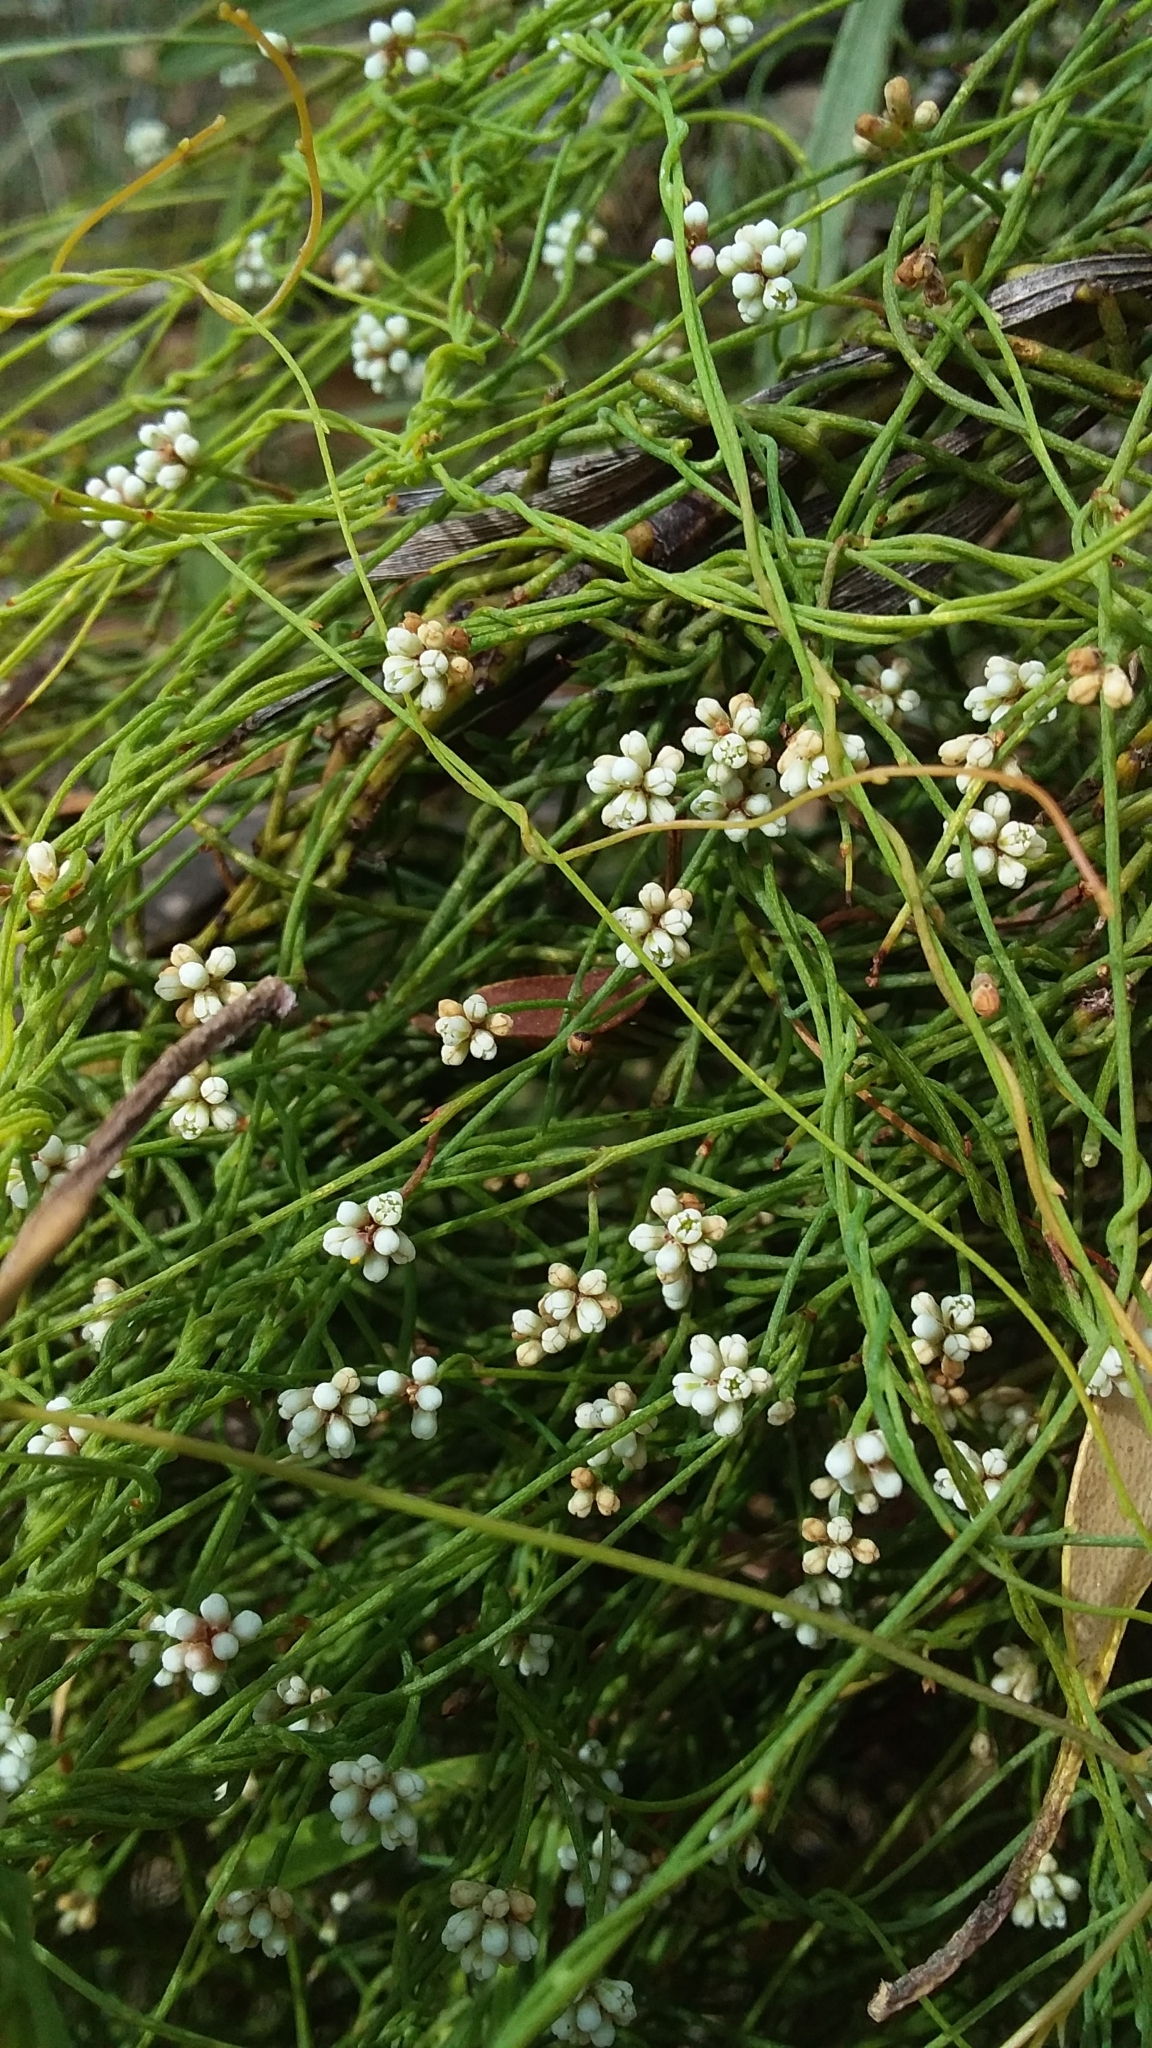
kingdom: Plantae
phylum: Tracheophyta
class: Magnoliopsida
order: Laurales
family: Lauraceae
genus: Cassytha
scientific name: Cassytha glabella
